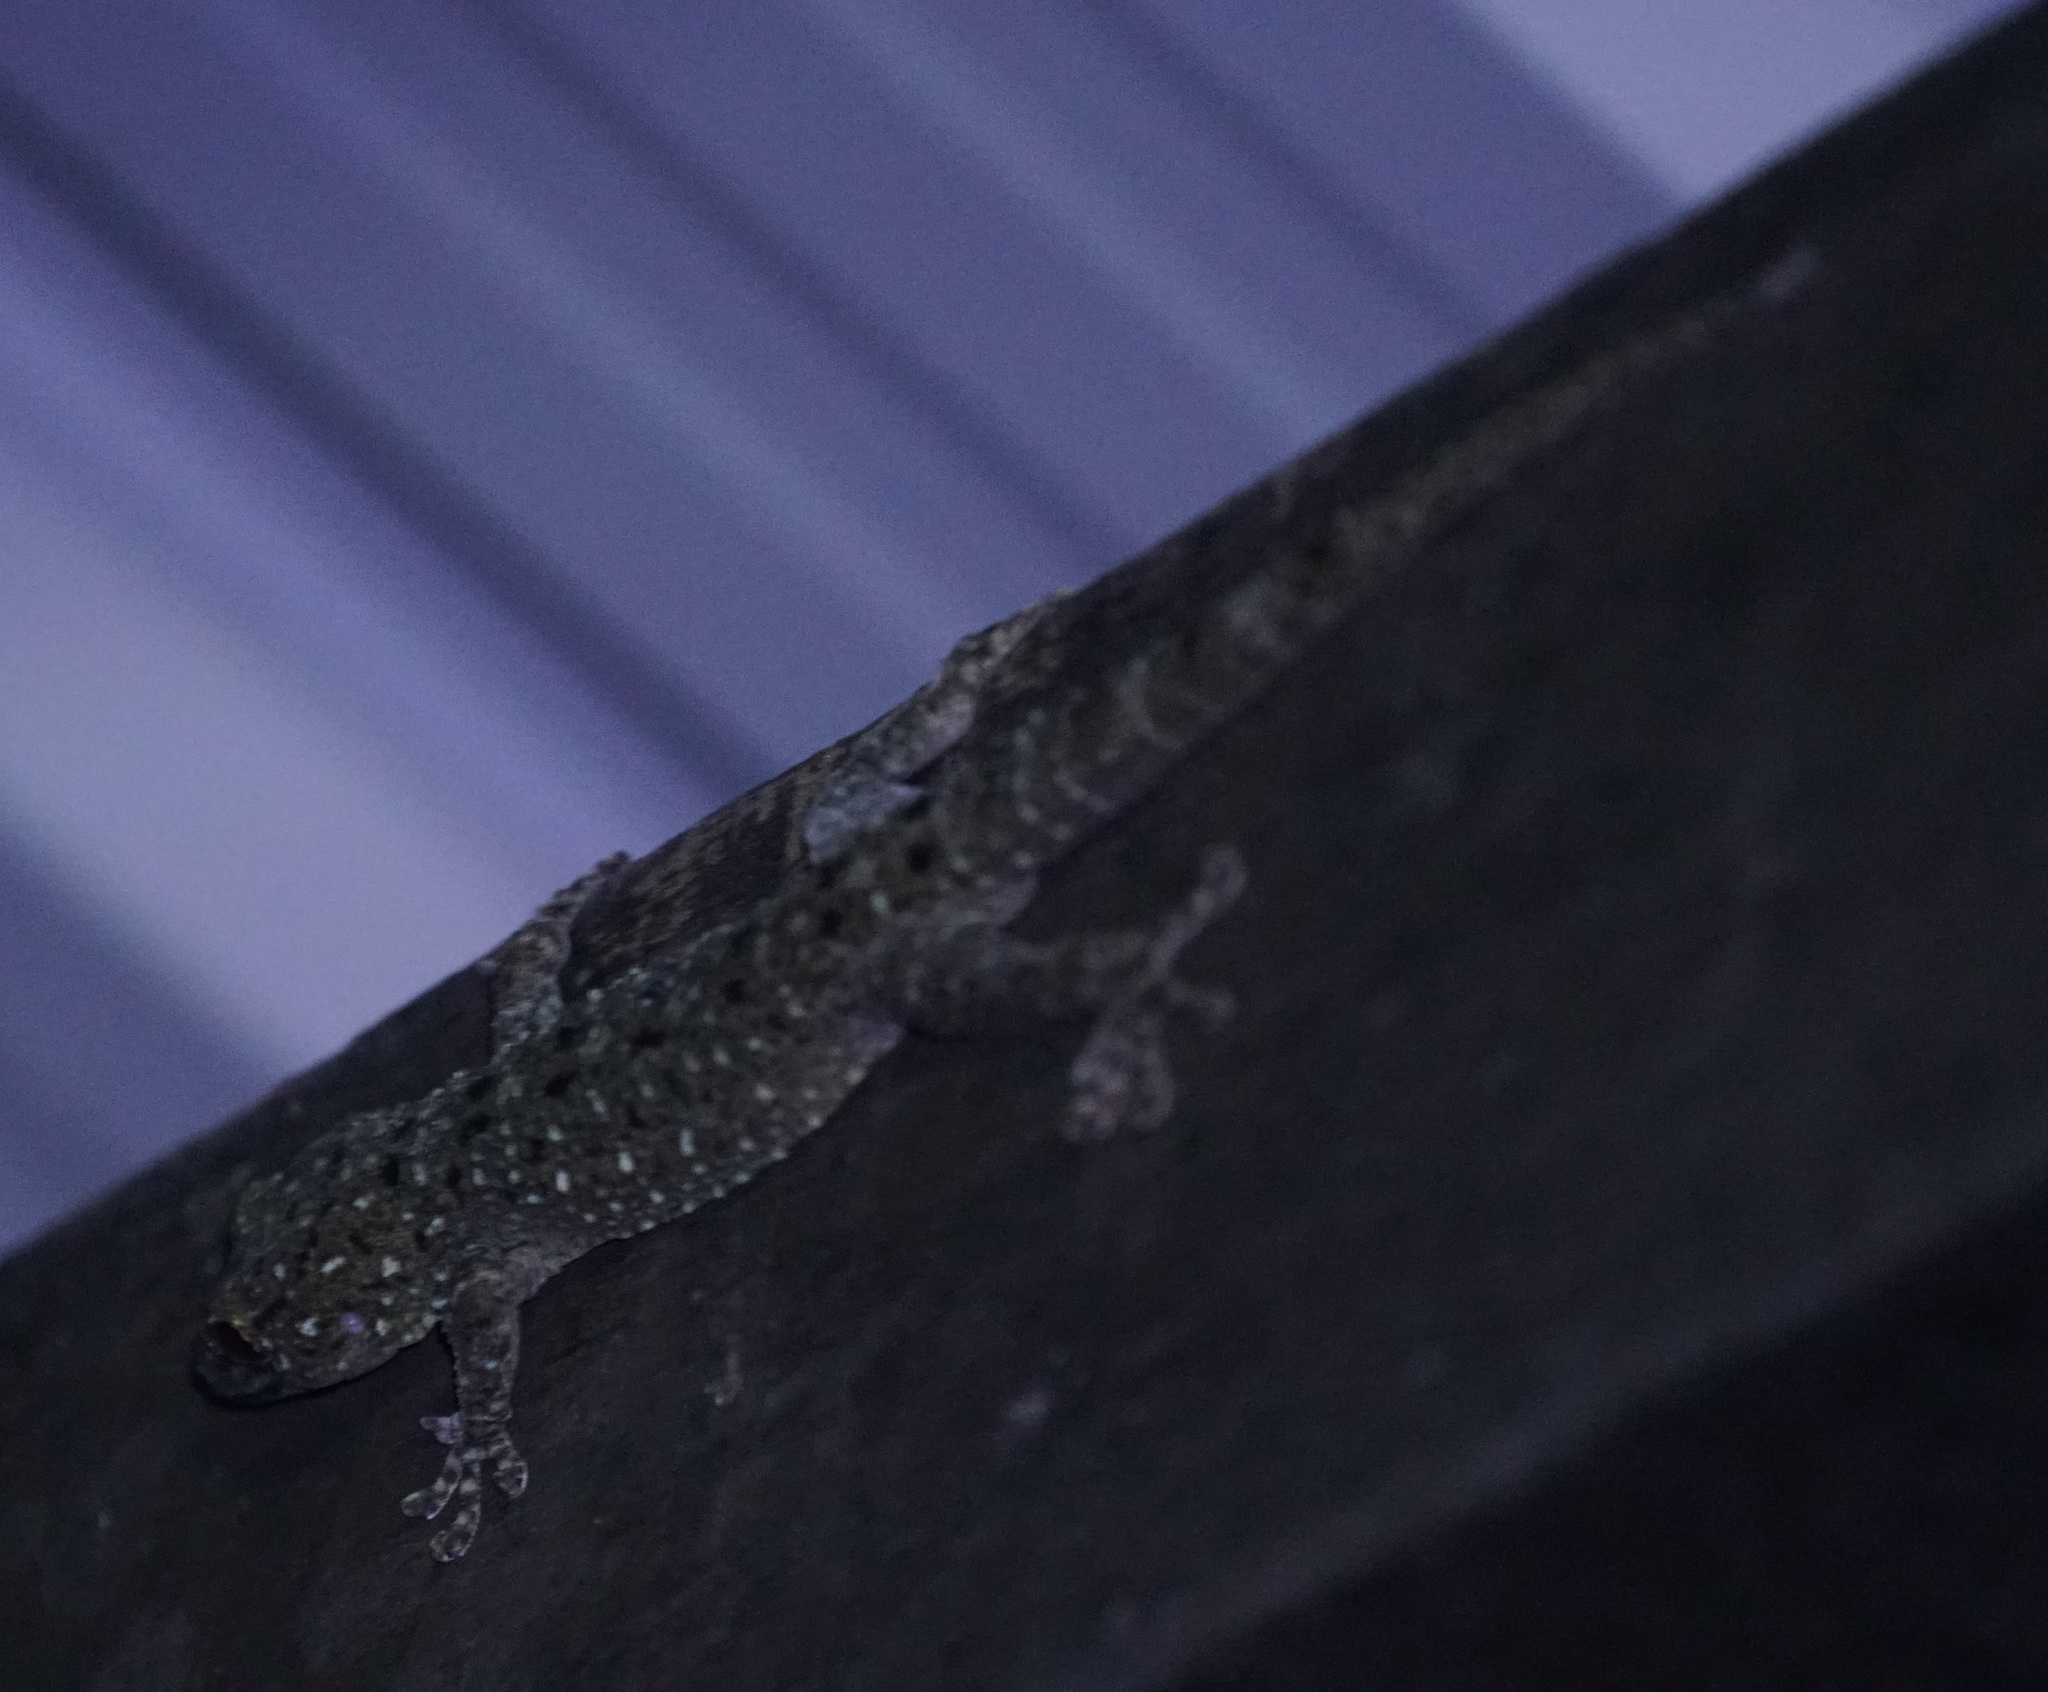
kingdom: Animalia
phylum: Chordata
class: Squamata
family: Gekkonidae
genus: Gekko
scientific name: Gekko monarchus
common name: Spotted house gecko
